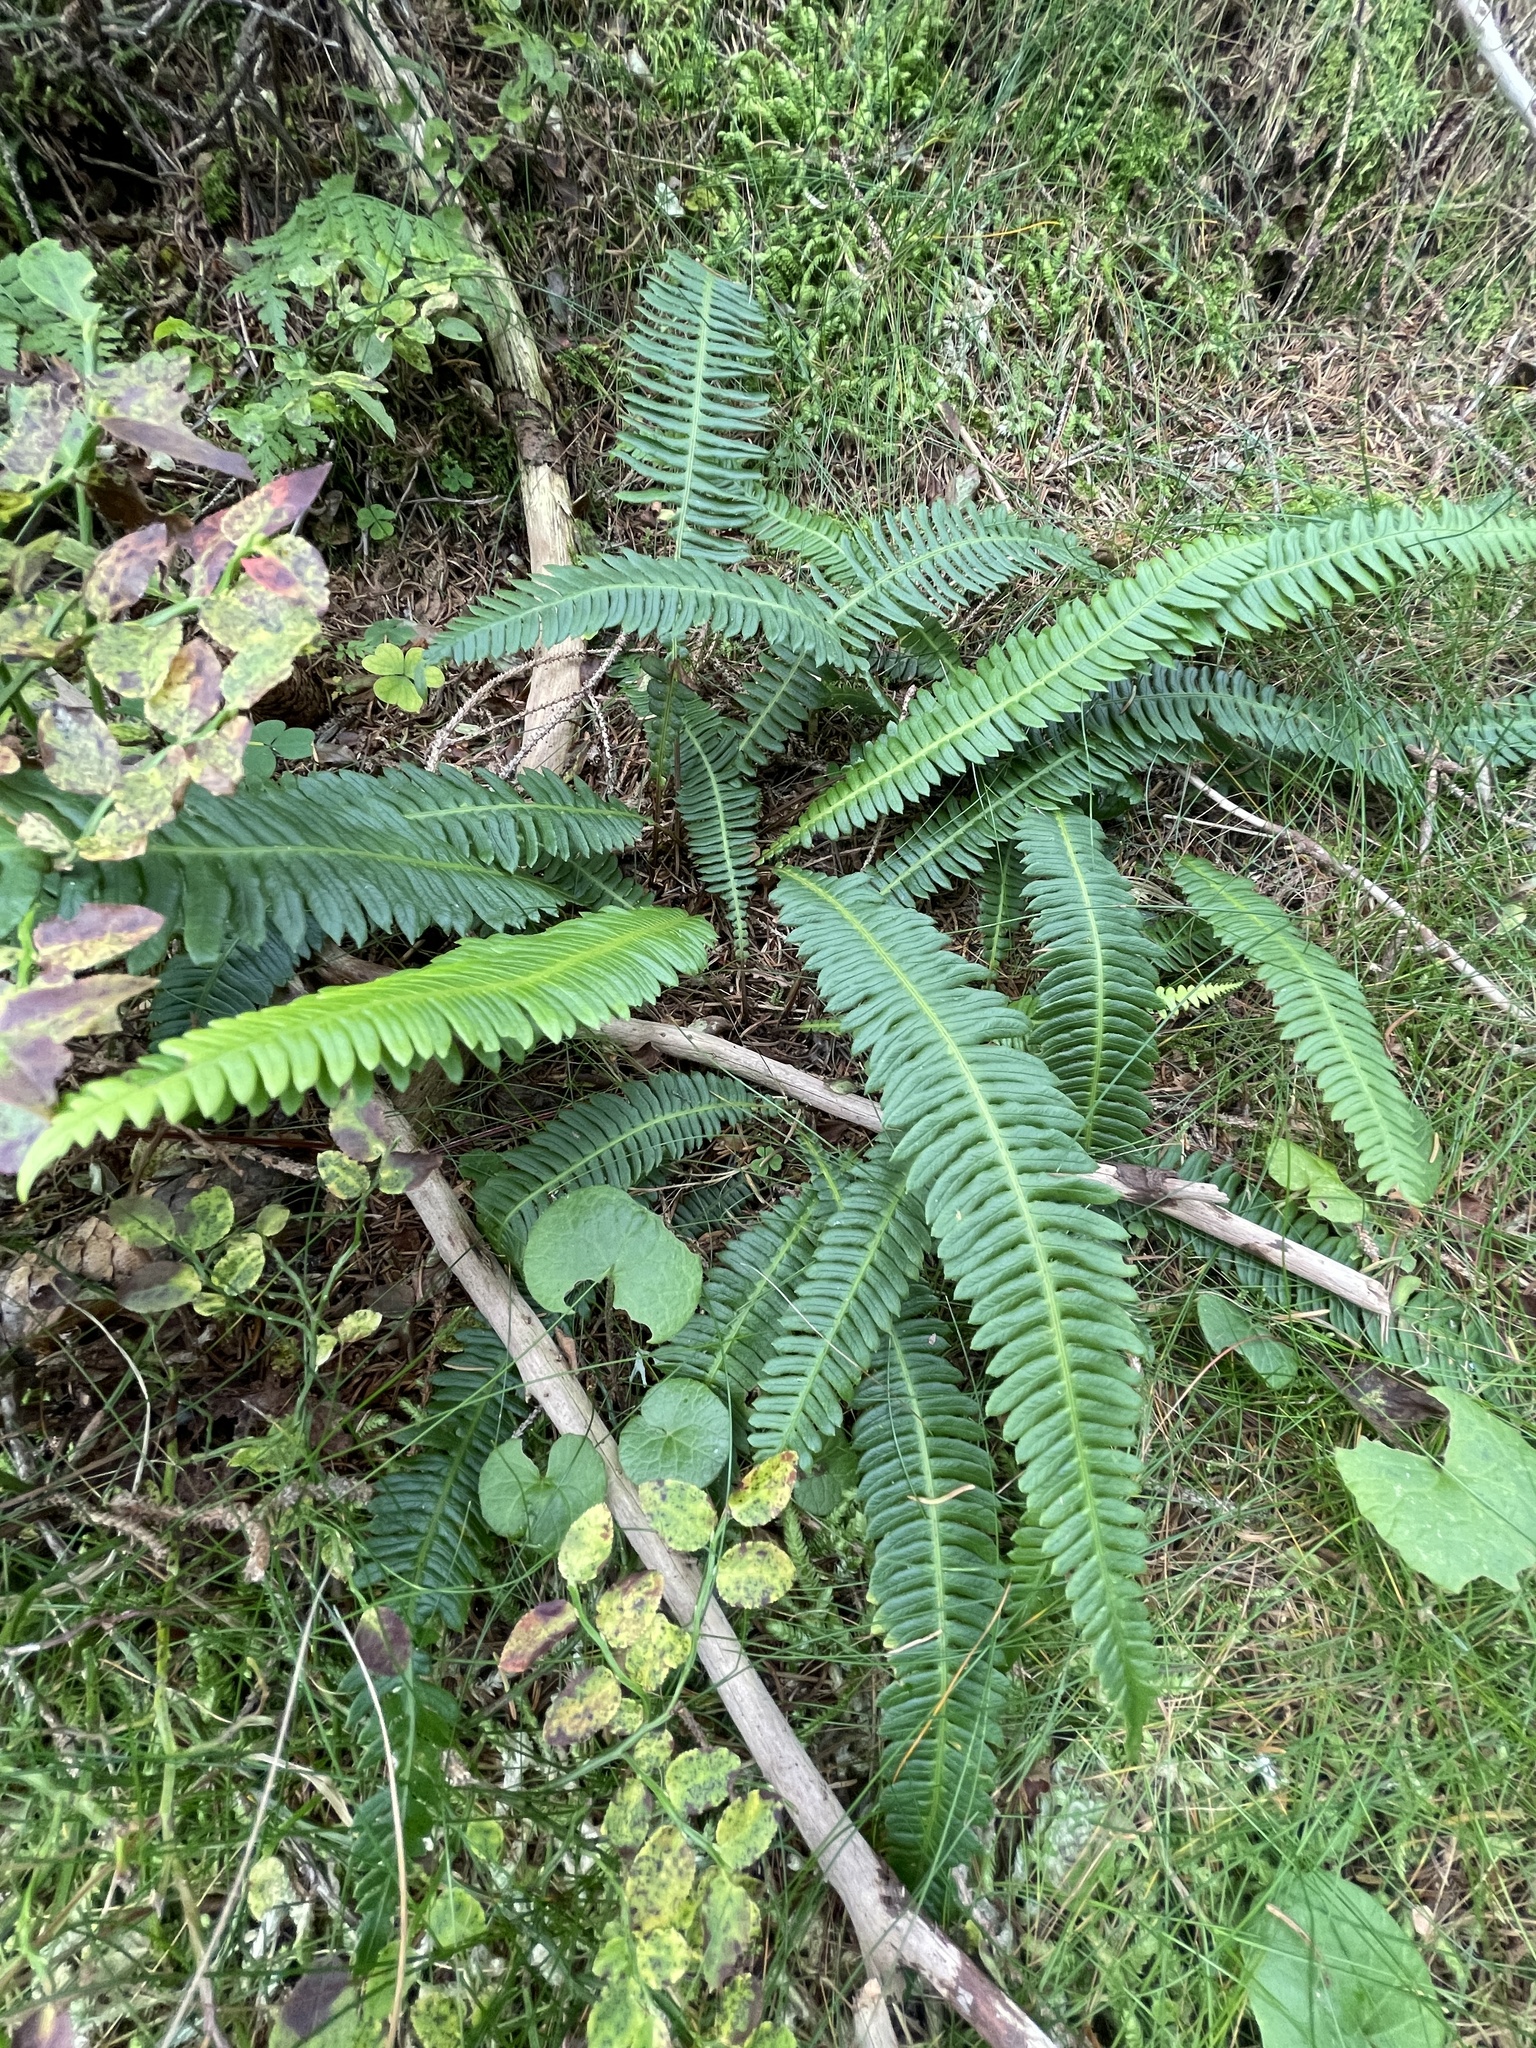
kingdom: Plantae
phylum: Tracheophyta
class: Polypodiopsida
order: Polypodiales
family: Blechnaceae
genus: Struthiopteris
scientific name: Struthiopteris spicant
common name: Deer fern
